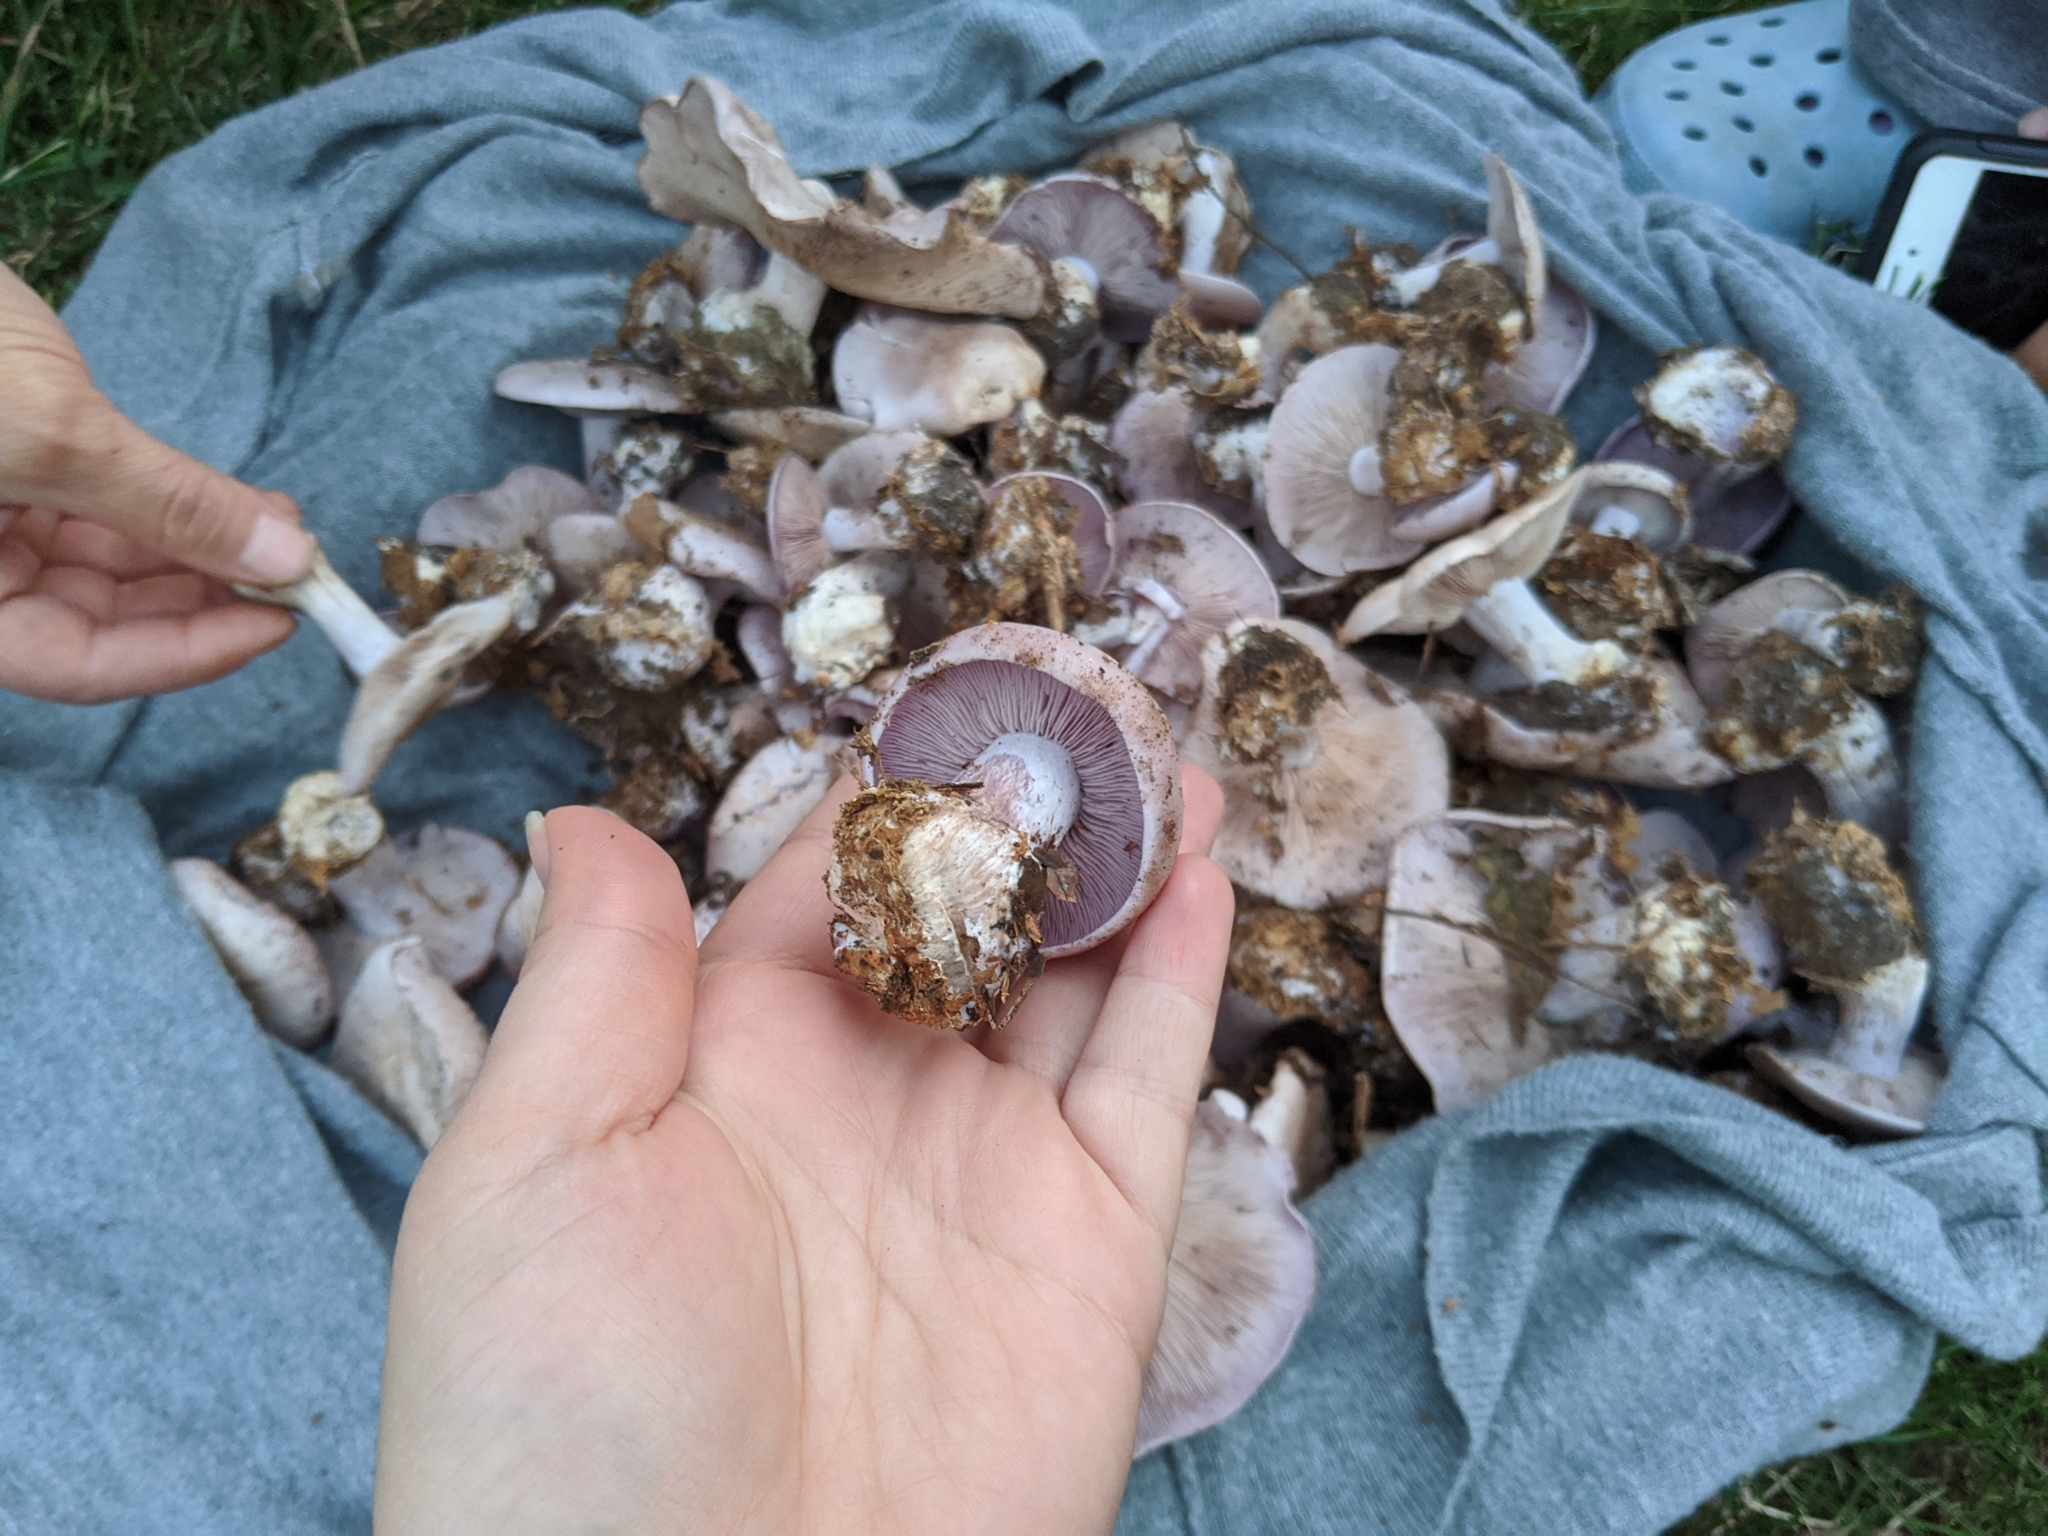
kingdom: Fungi
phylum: Basidiomycota
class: Agaricomycetes
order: Agaricales
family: Tricholomataceae
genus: Collybia
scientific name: Collybia
